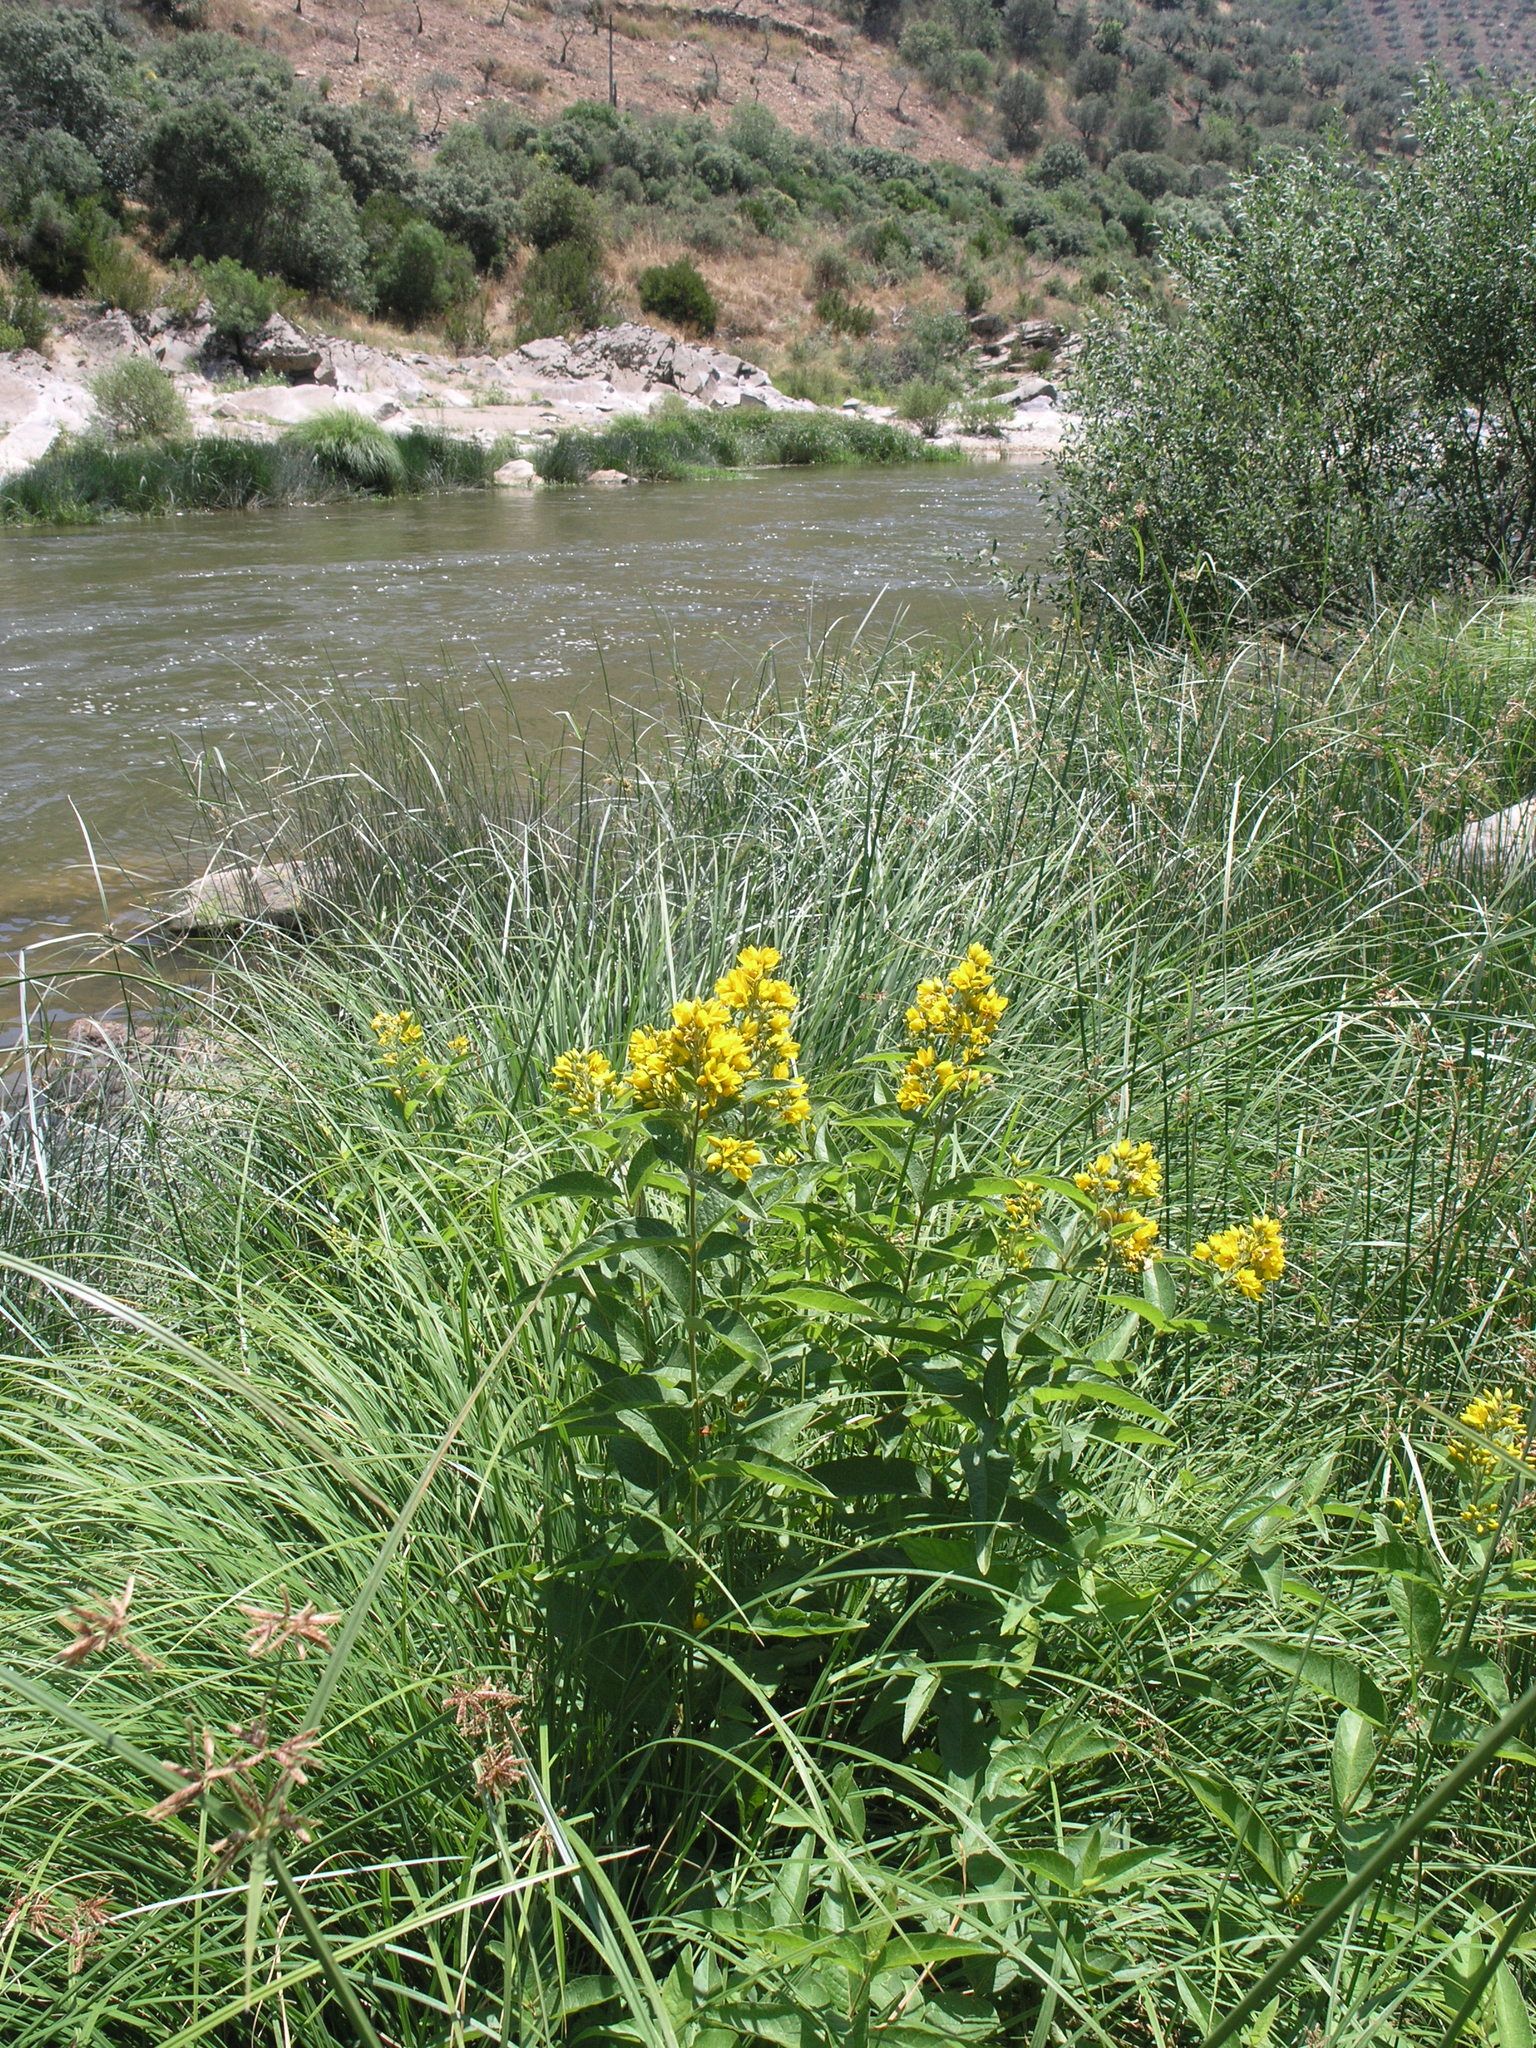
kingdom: Plantae
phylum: Tracheophyta
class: Magnoliopsida
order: Ericales
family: Primulaceae
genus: Lysimachia
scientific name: Lysimachia vulgaris
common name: Yellow loosestrife
